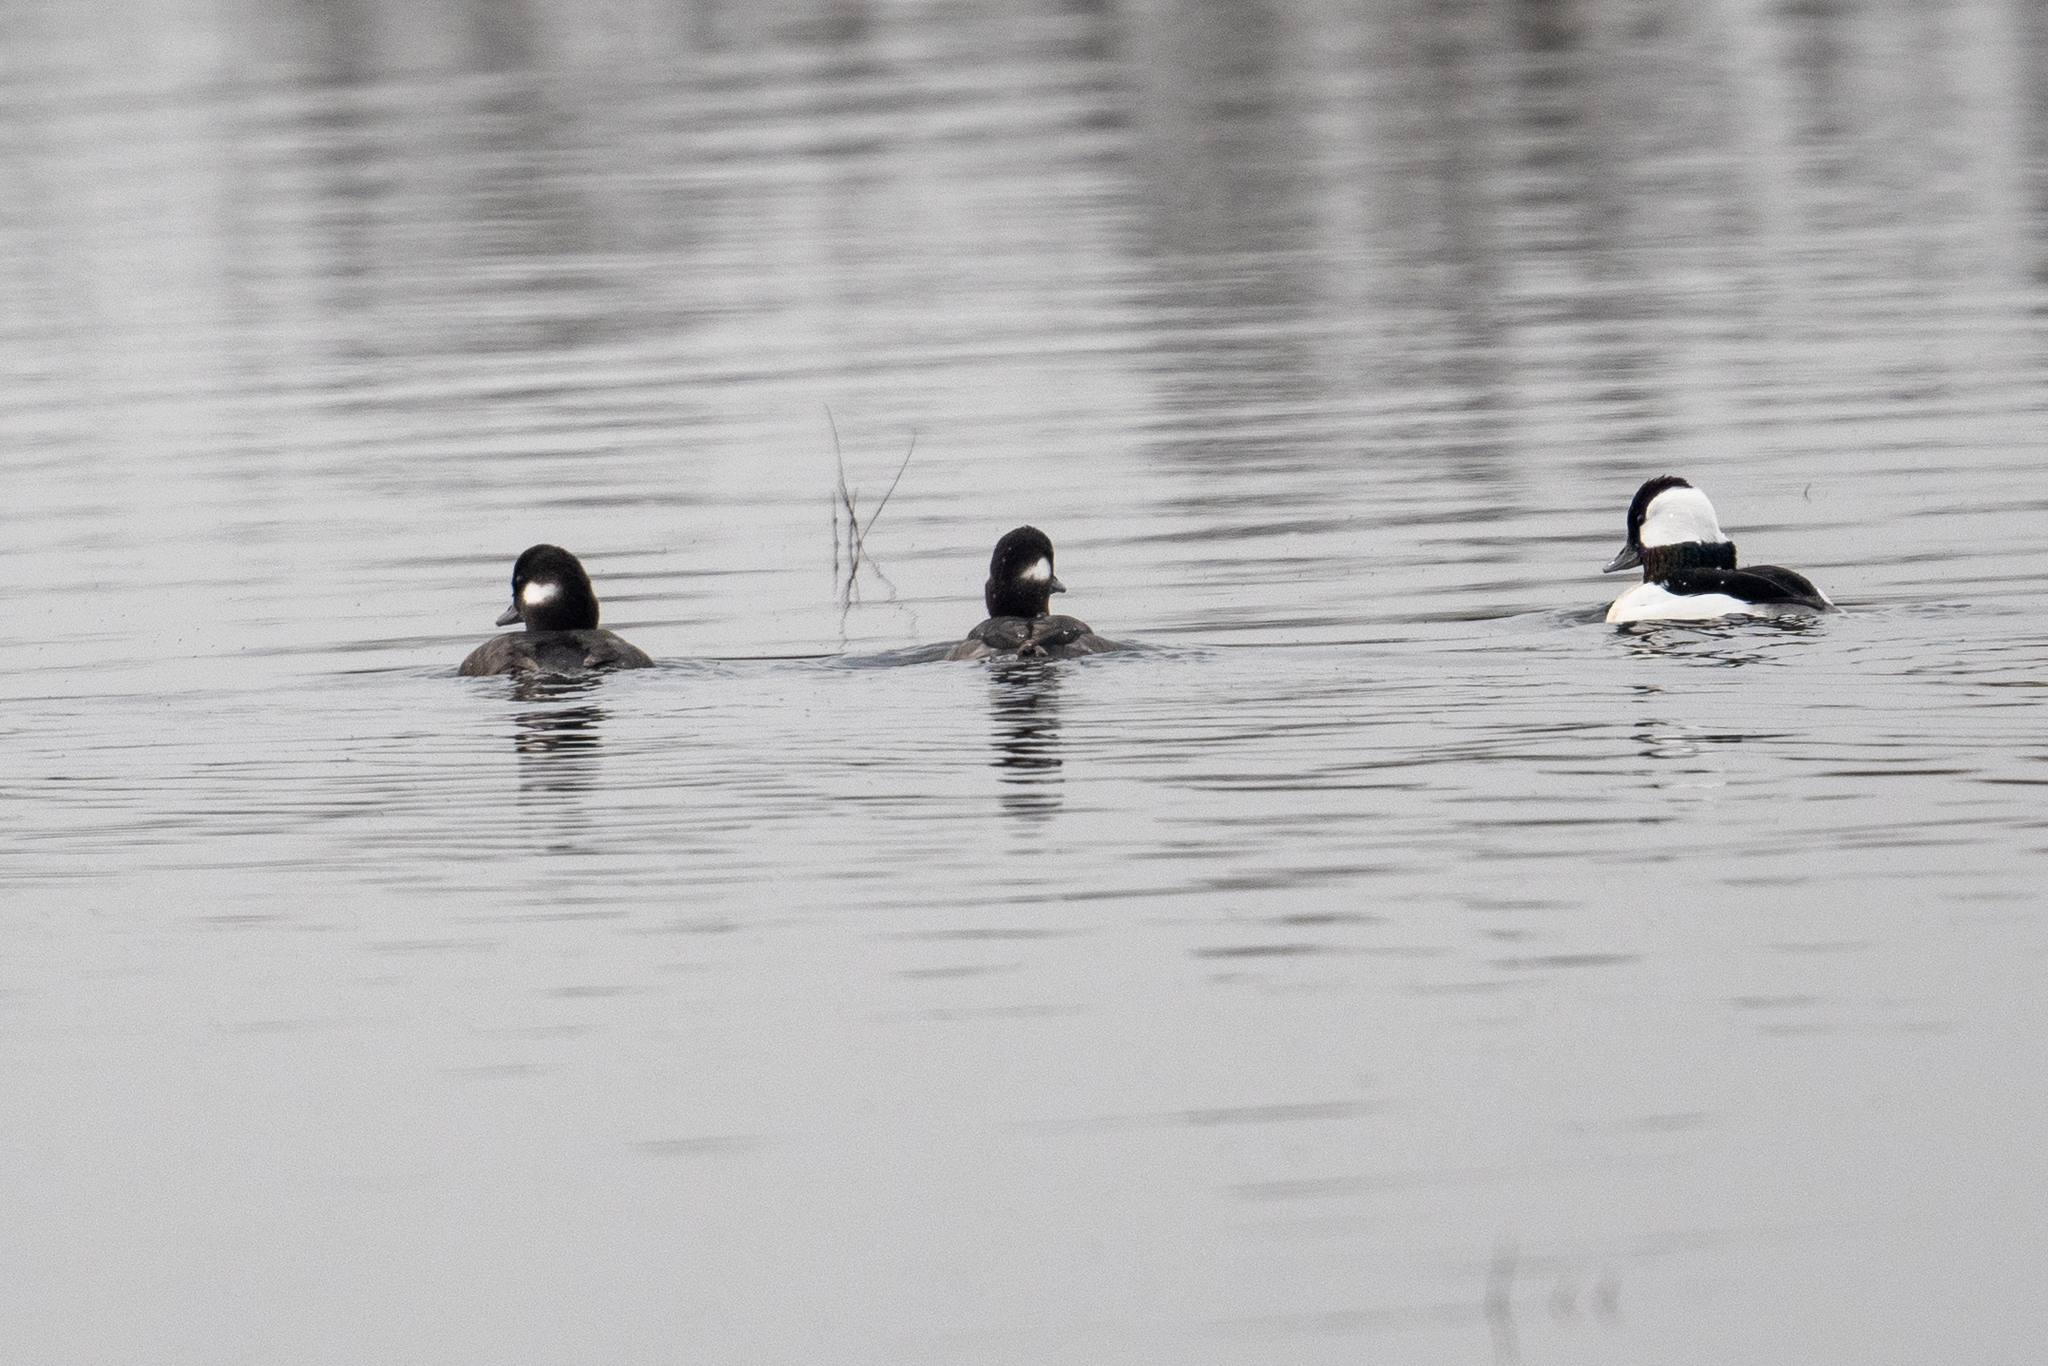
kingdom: Animalia
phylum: Chordata
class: Aves
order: Anseriformes
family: Anatidae
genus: Bucephala
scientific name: Bucephala albeola
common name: Bufflehead
